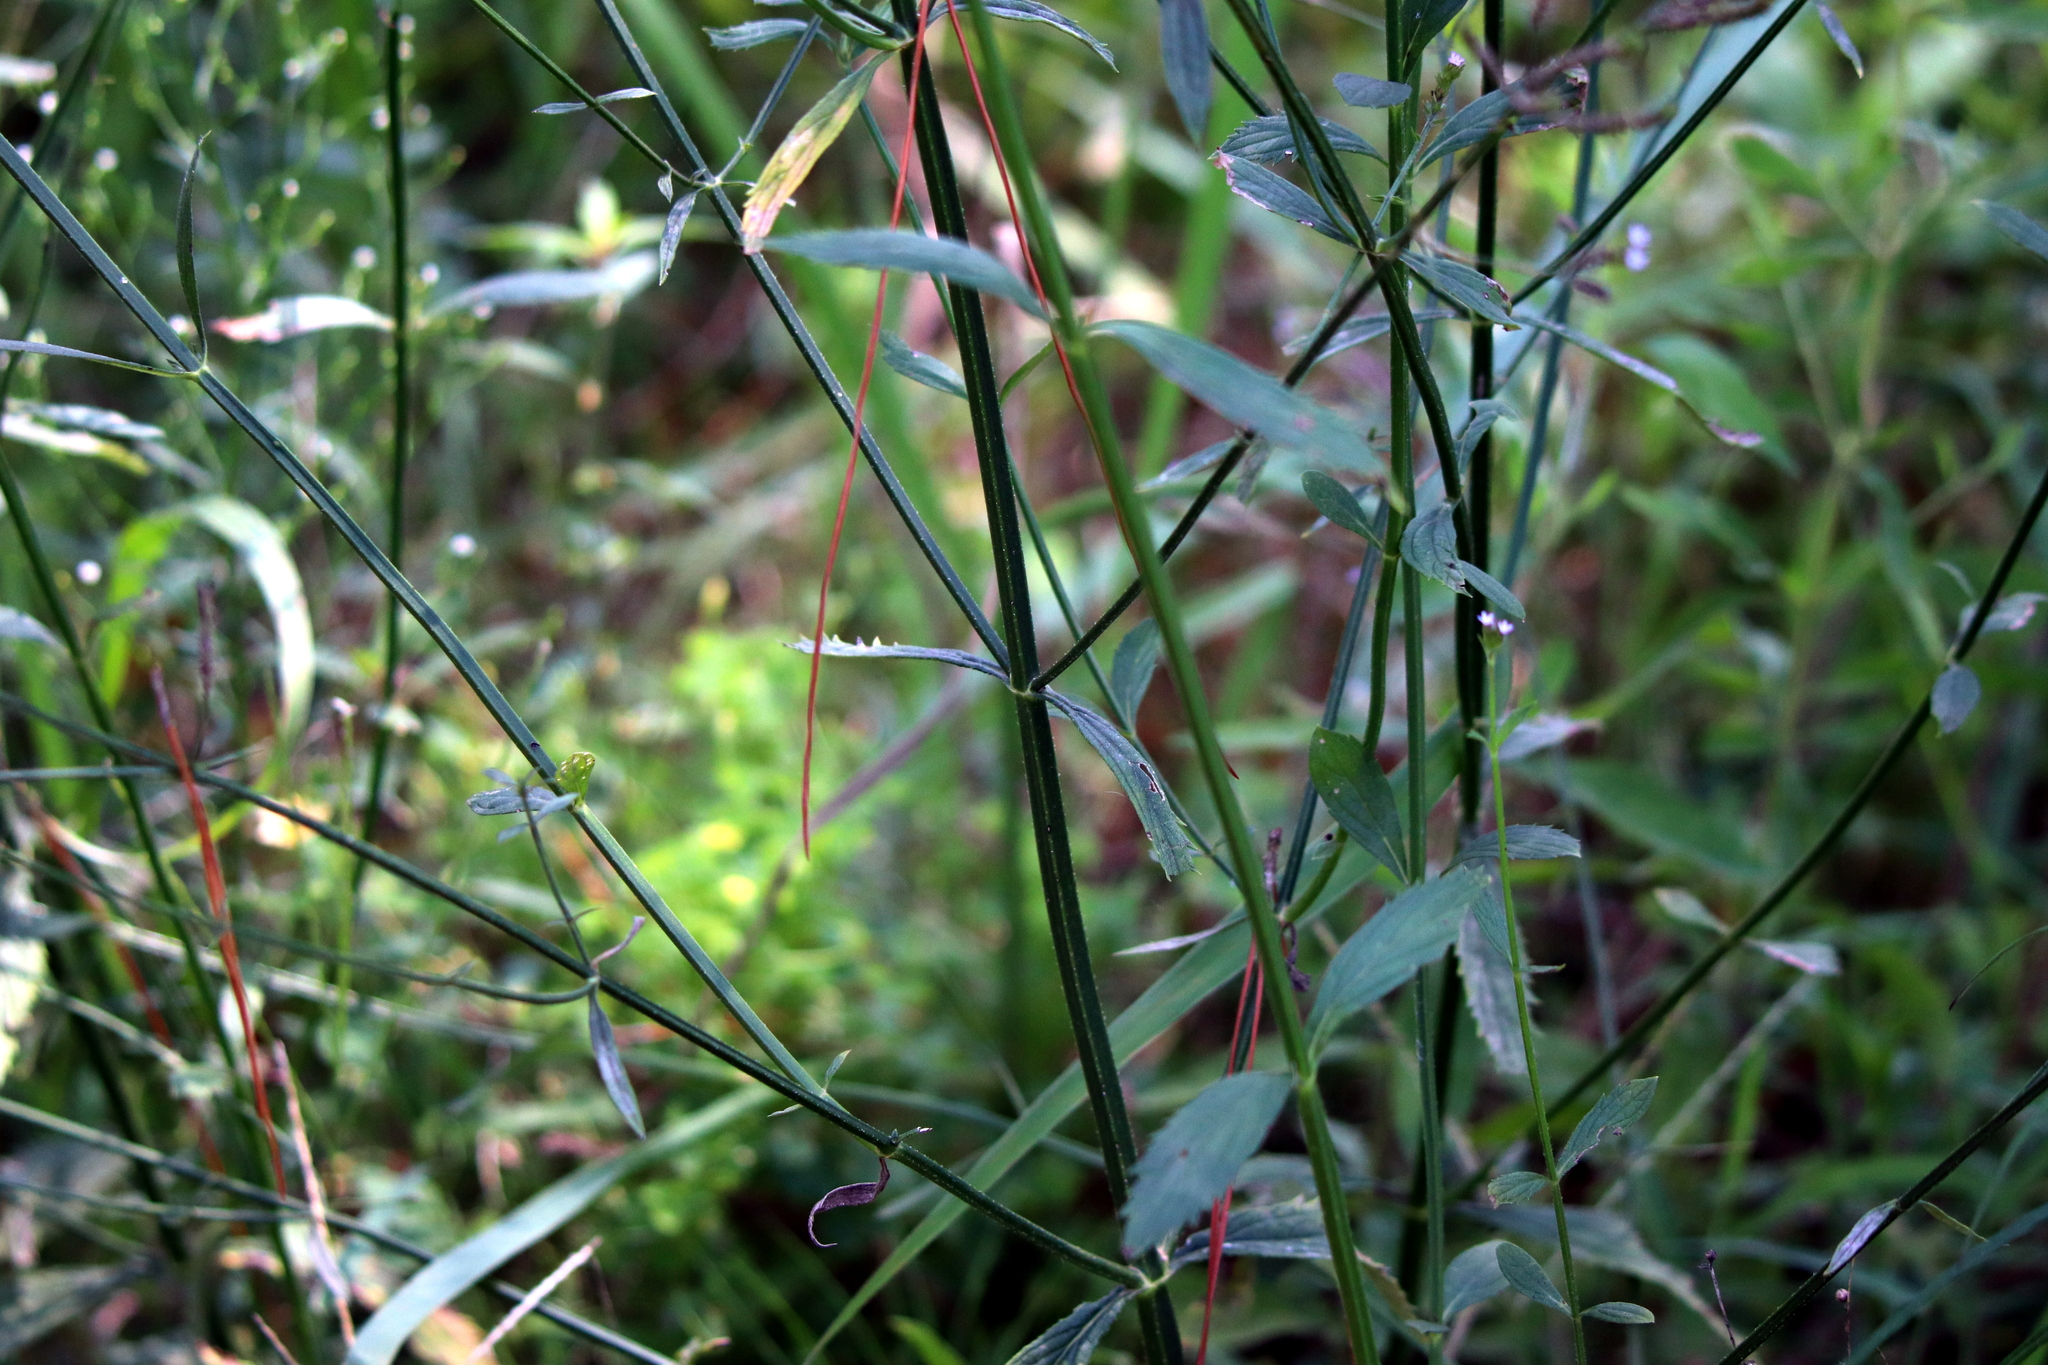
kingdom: Plantae
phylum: Tracheophyta
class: Magnoliopsida
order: Lamiales
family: Verbenaceae
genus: Verbena
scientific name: Verbena brasiliensis
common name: Brazilian vervain
